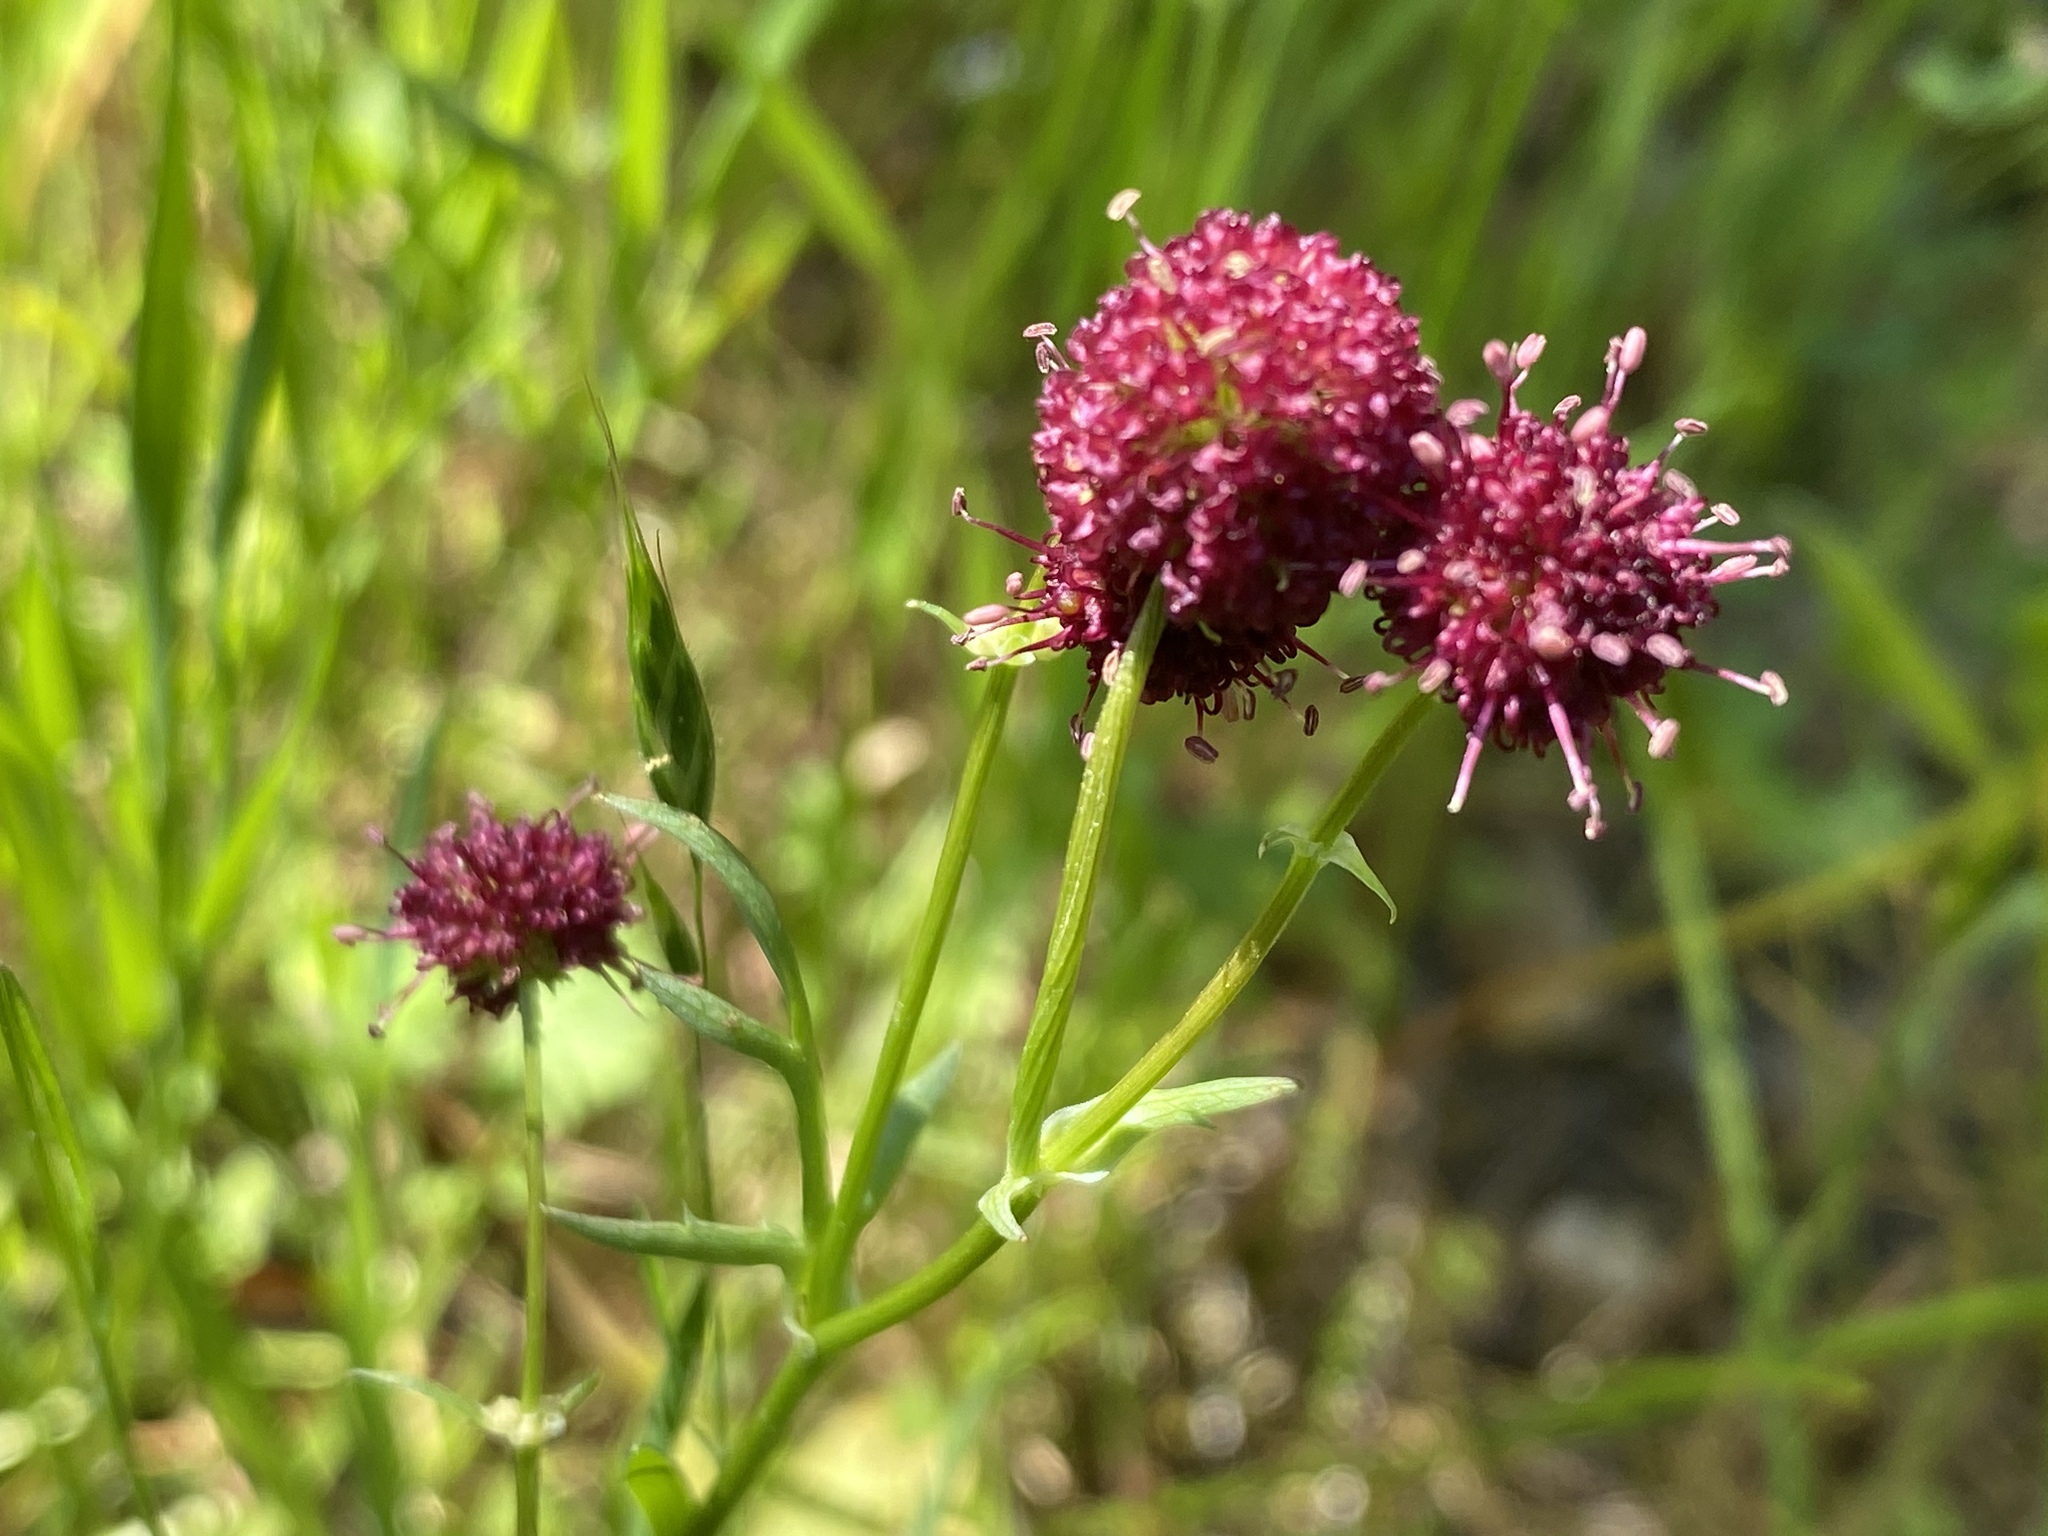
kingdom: Plantae
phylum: Tracheophyta
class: Magnoliopsida
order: Apiales
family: Apiaceae
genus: Sanicula
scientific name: Sanicula bipinnatifida
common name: Shoe-buttons
